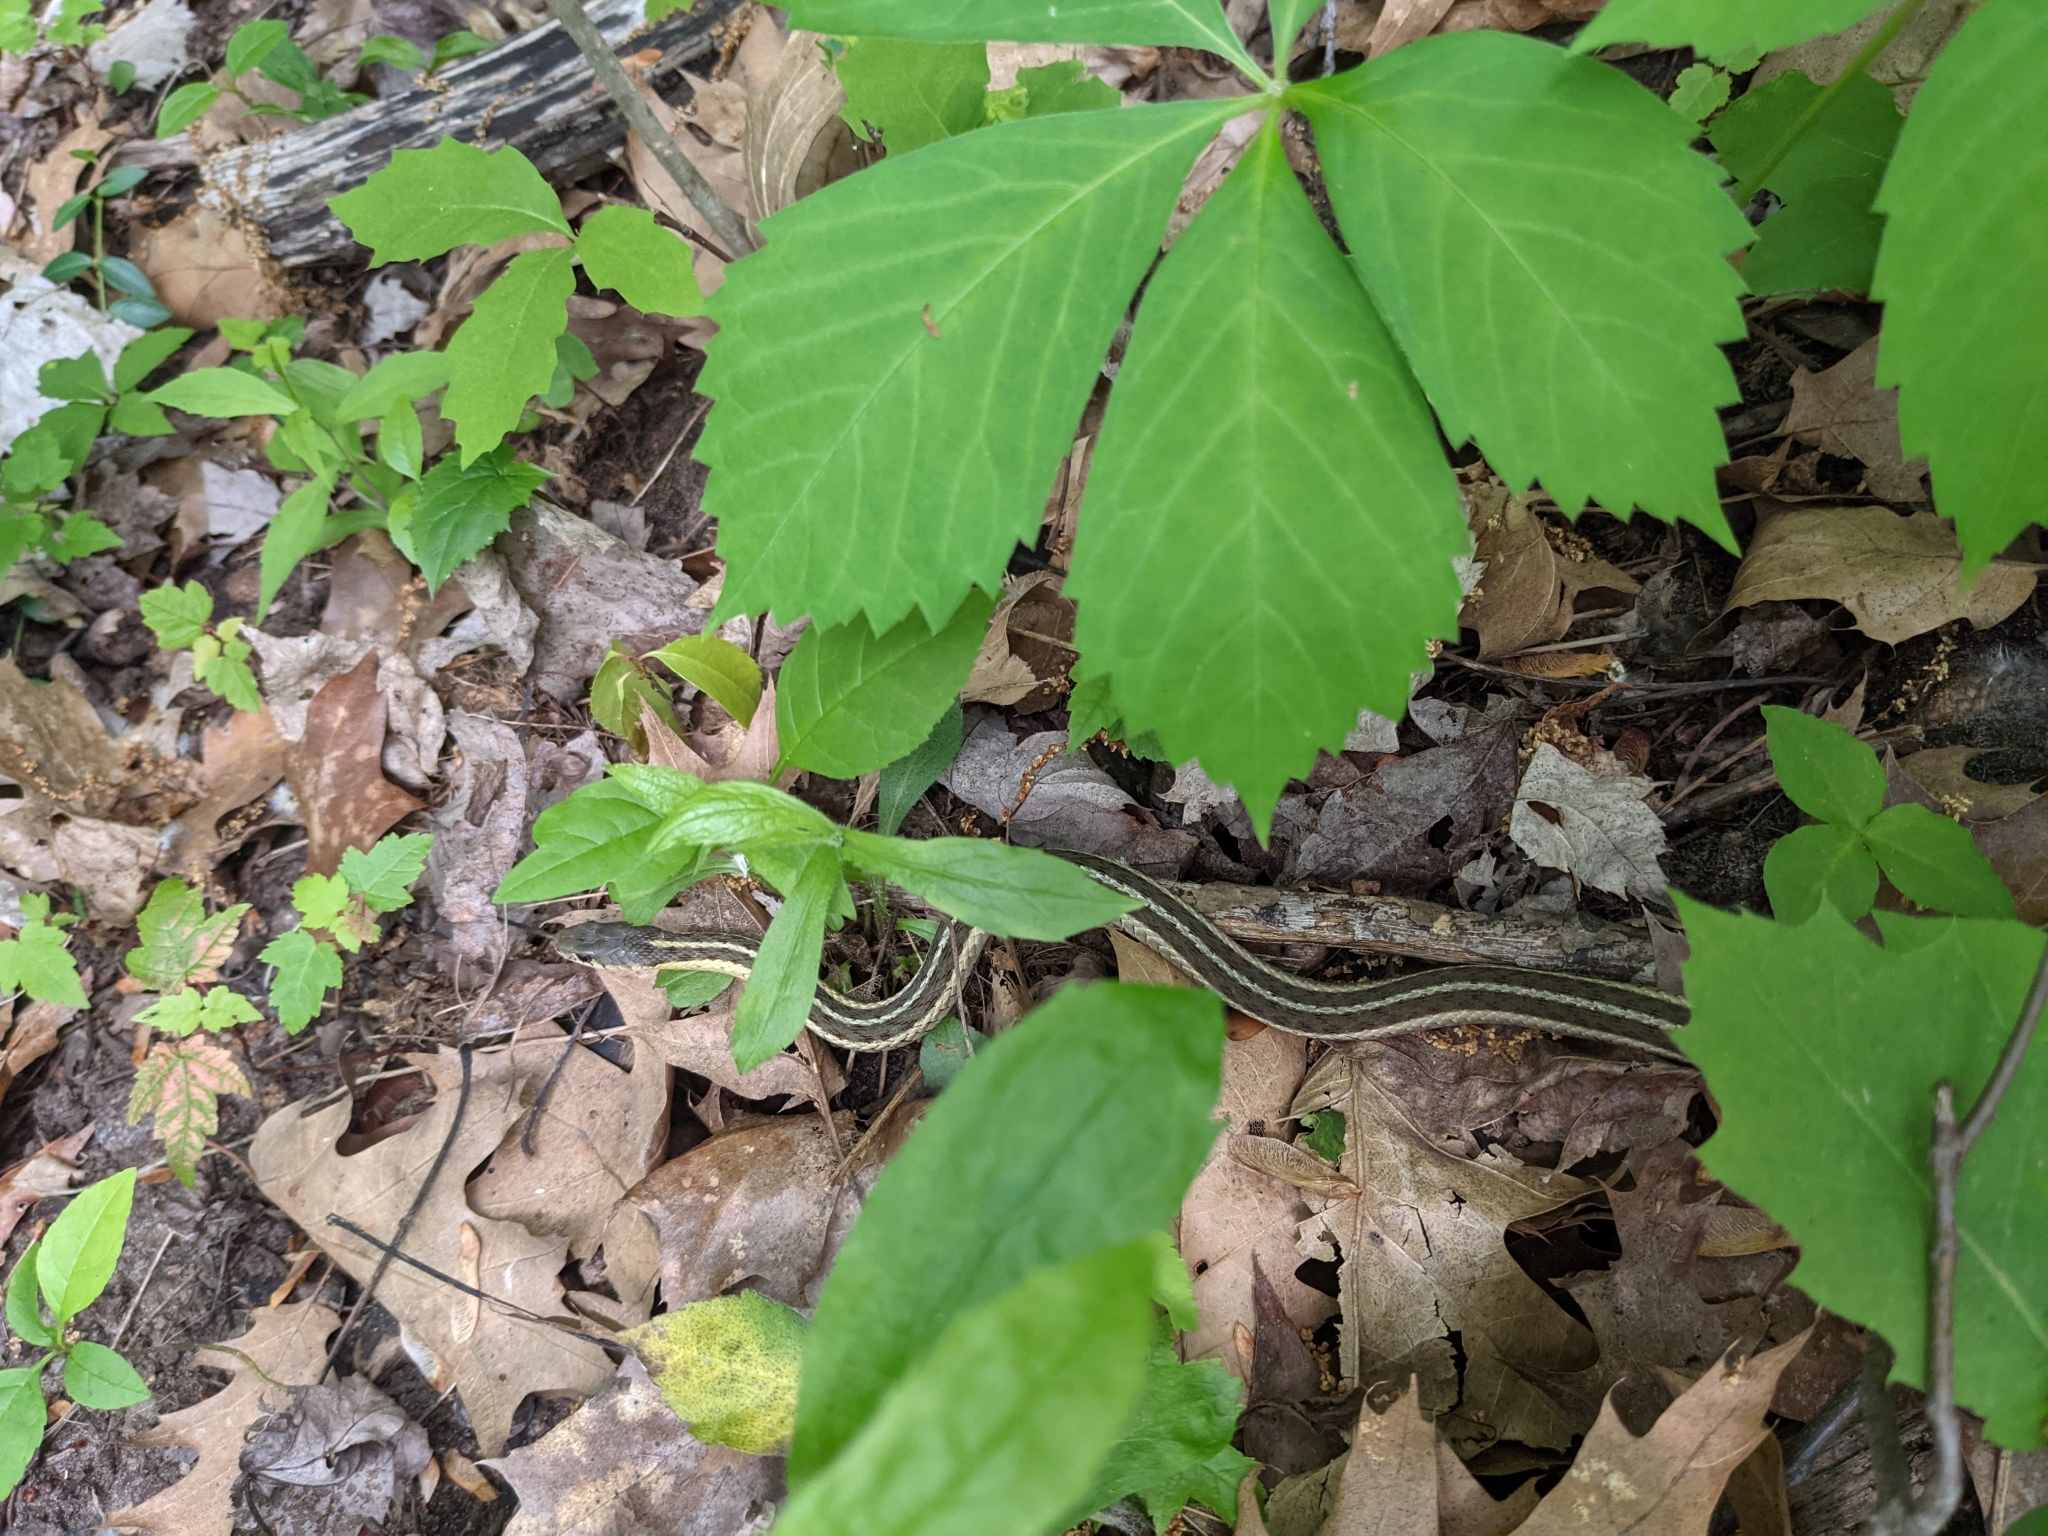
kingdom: Animalia
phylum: Chordata
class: Squamata
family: Colubridae
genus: Thamnophis
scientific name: Thamnophis sirtalis
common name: Common garter snake
